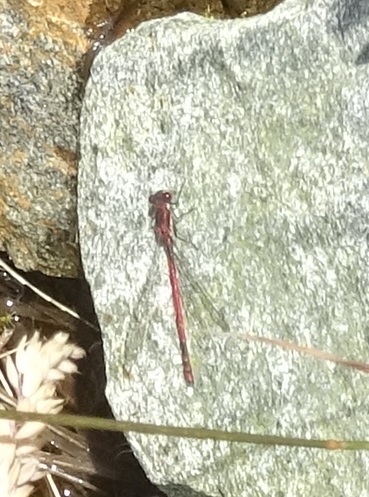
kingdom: Animalia
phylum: Arthropoda
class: Insecta
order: Odonata
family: Coenagrionidae
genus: Pyrrhosoma
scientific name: Pyrrhosoma nymphula
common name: Large red damsel
